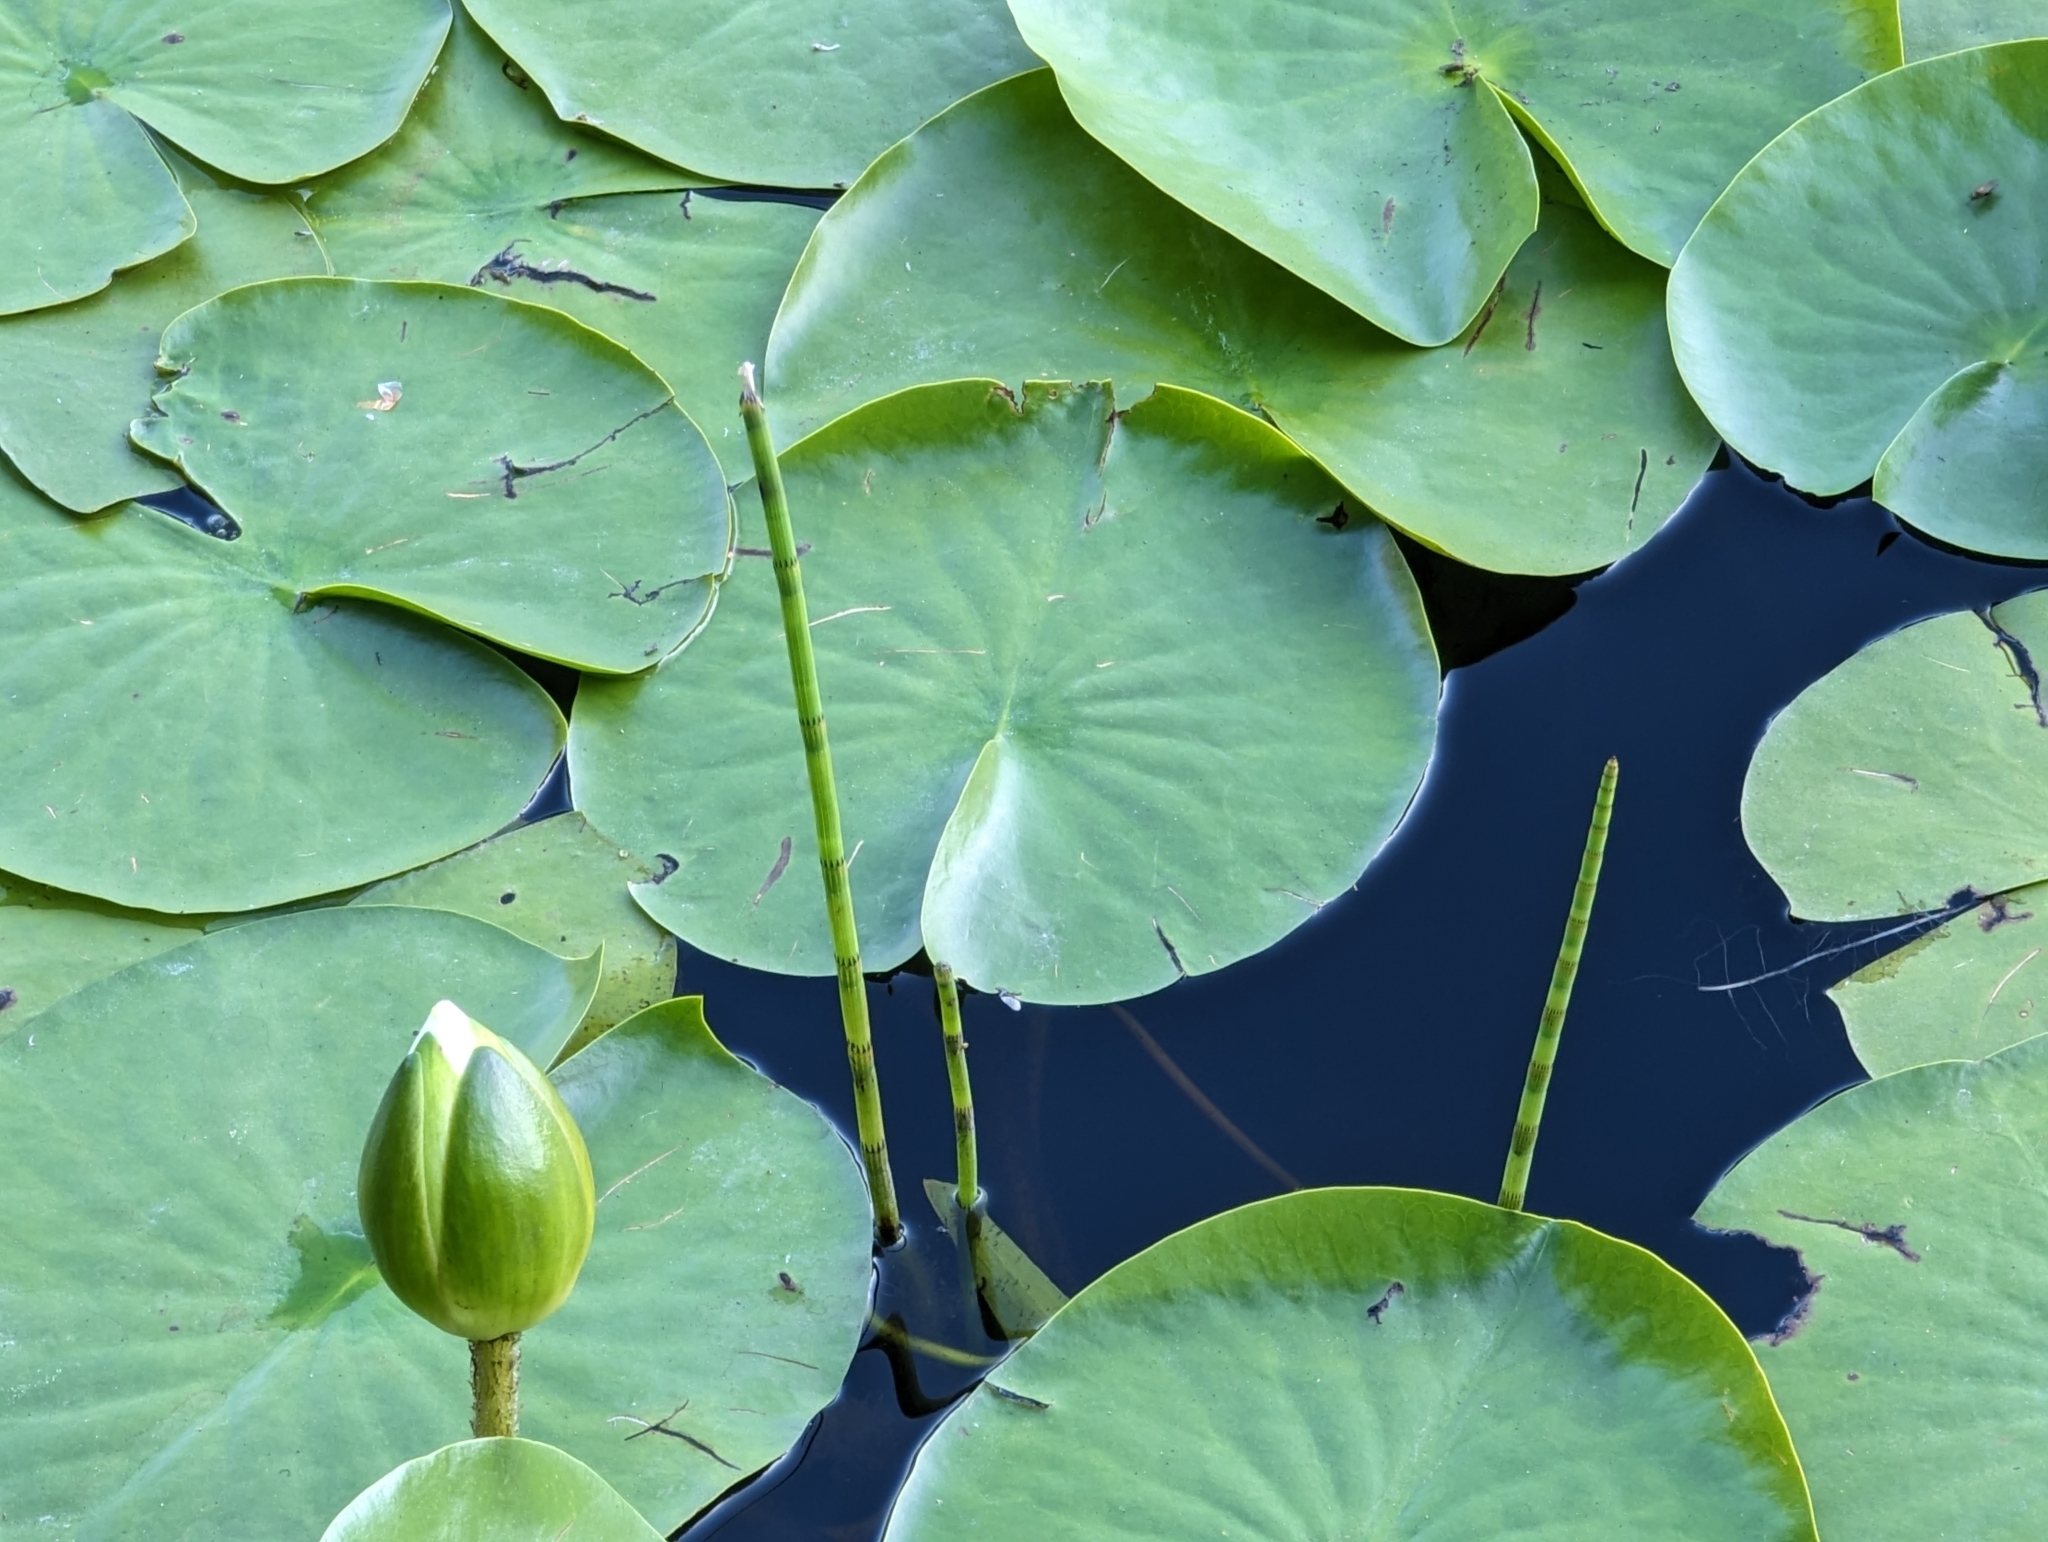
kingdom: Plantae
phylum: Tracheophyta
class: Polypodiopsida
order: Equisetales
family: Equisetaceae
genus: Equisetum
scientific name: Equisetum fluviatile
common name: Water horsetail
